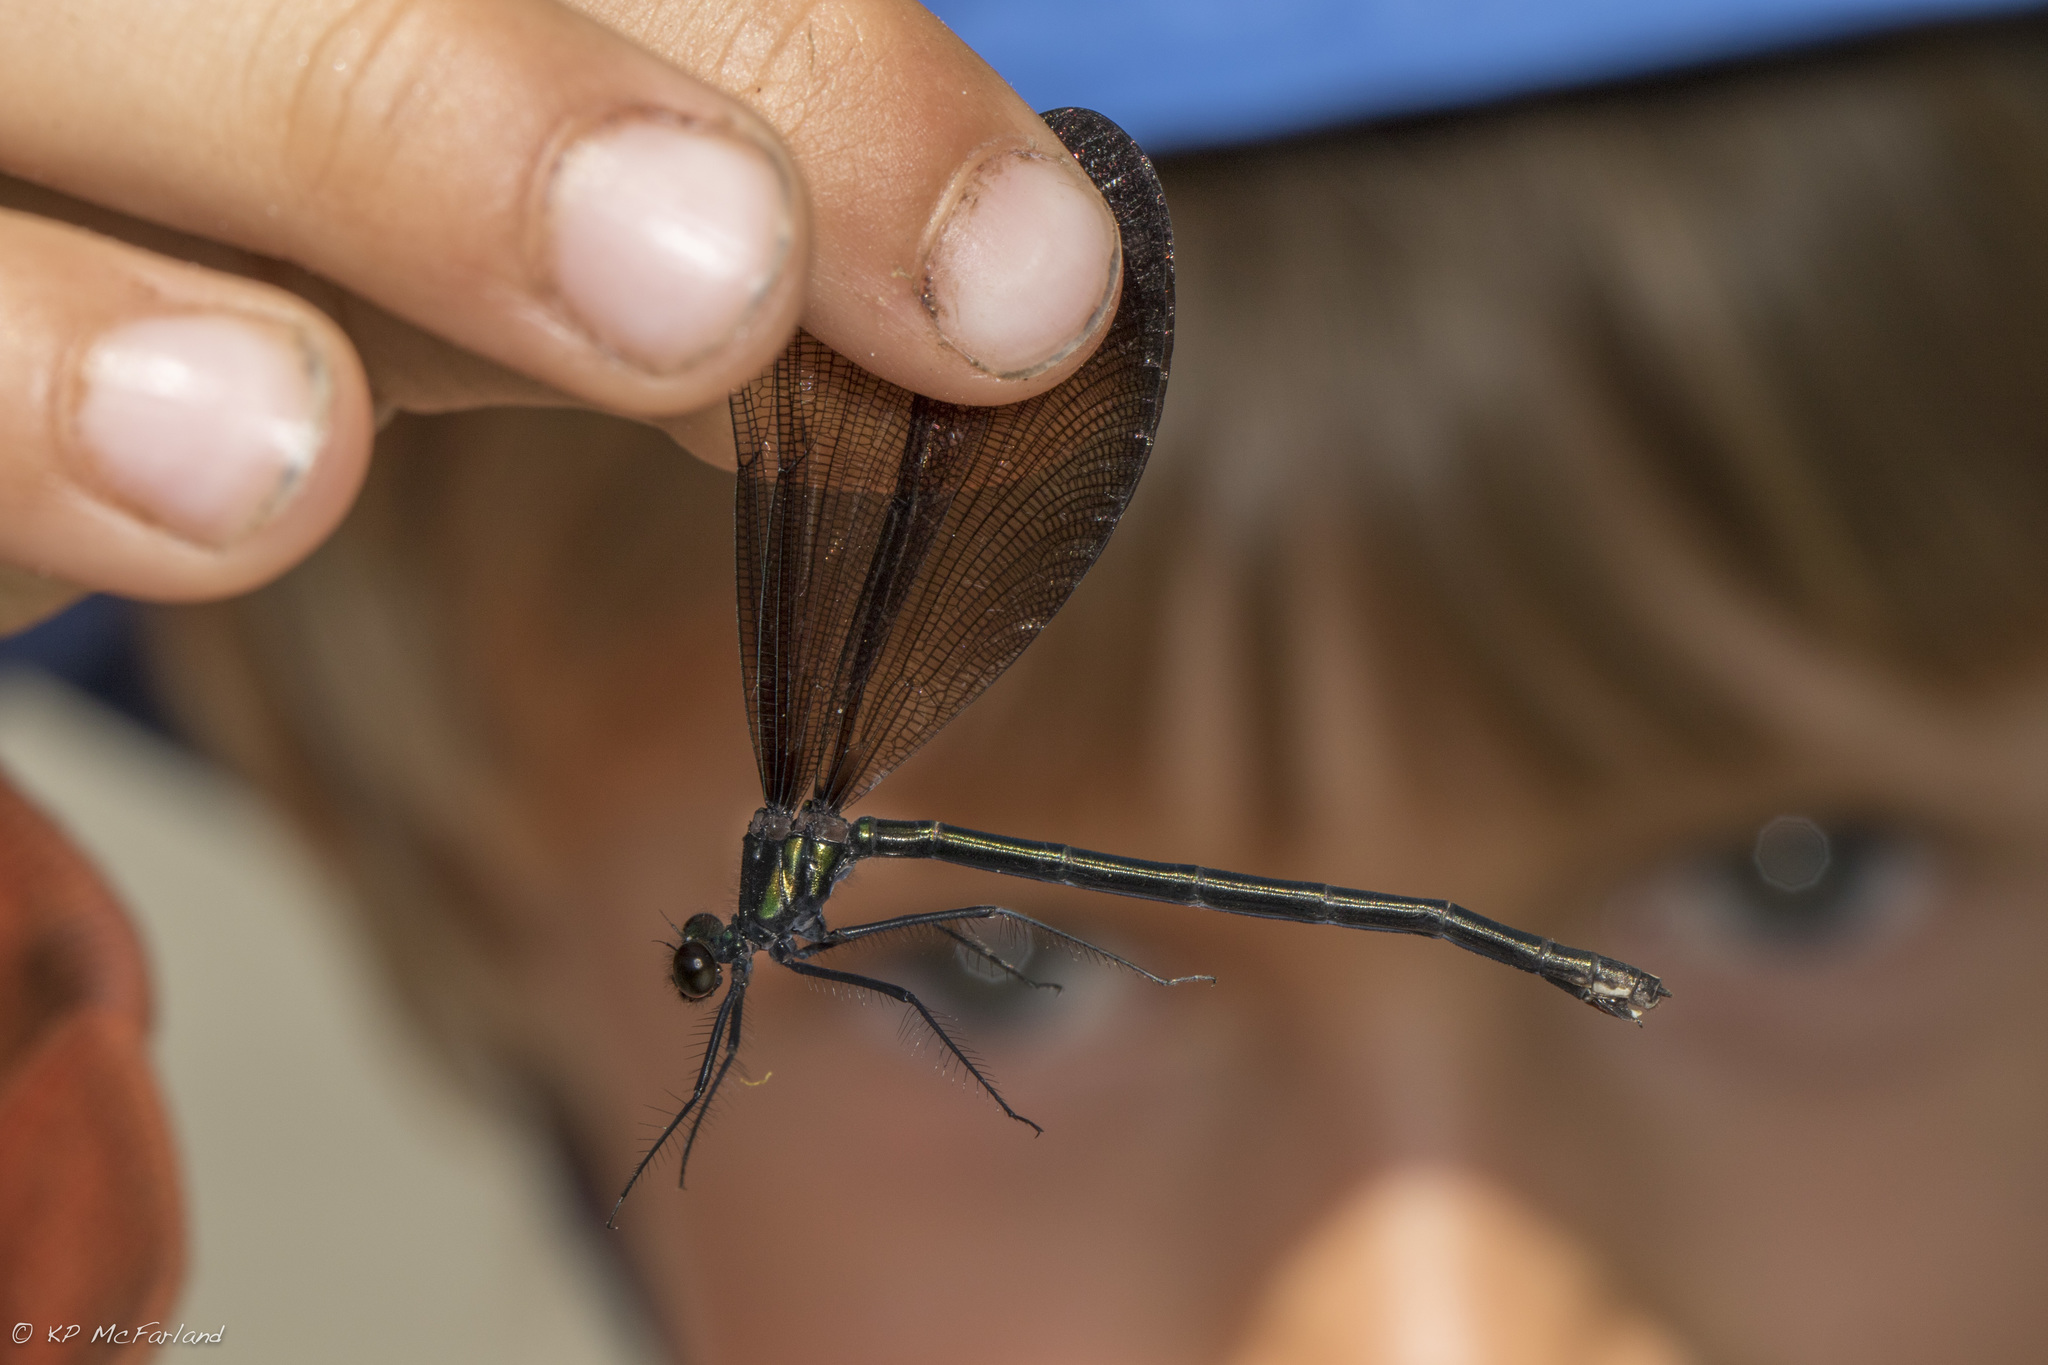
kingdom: Animalia
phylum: Arthropoda
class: Insecta
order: Odonata
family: Calopterygidae
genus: Calopteryx
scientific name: Calopteryx maculata
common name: Ebony jewelwing
